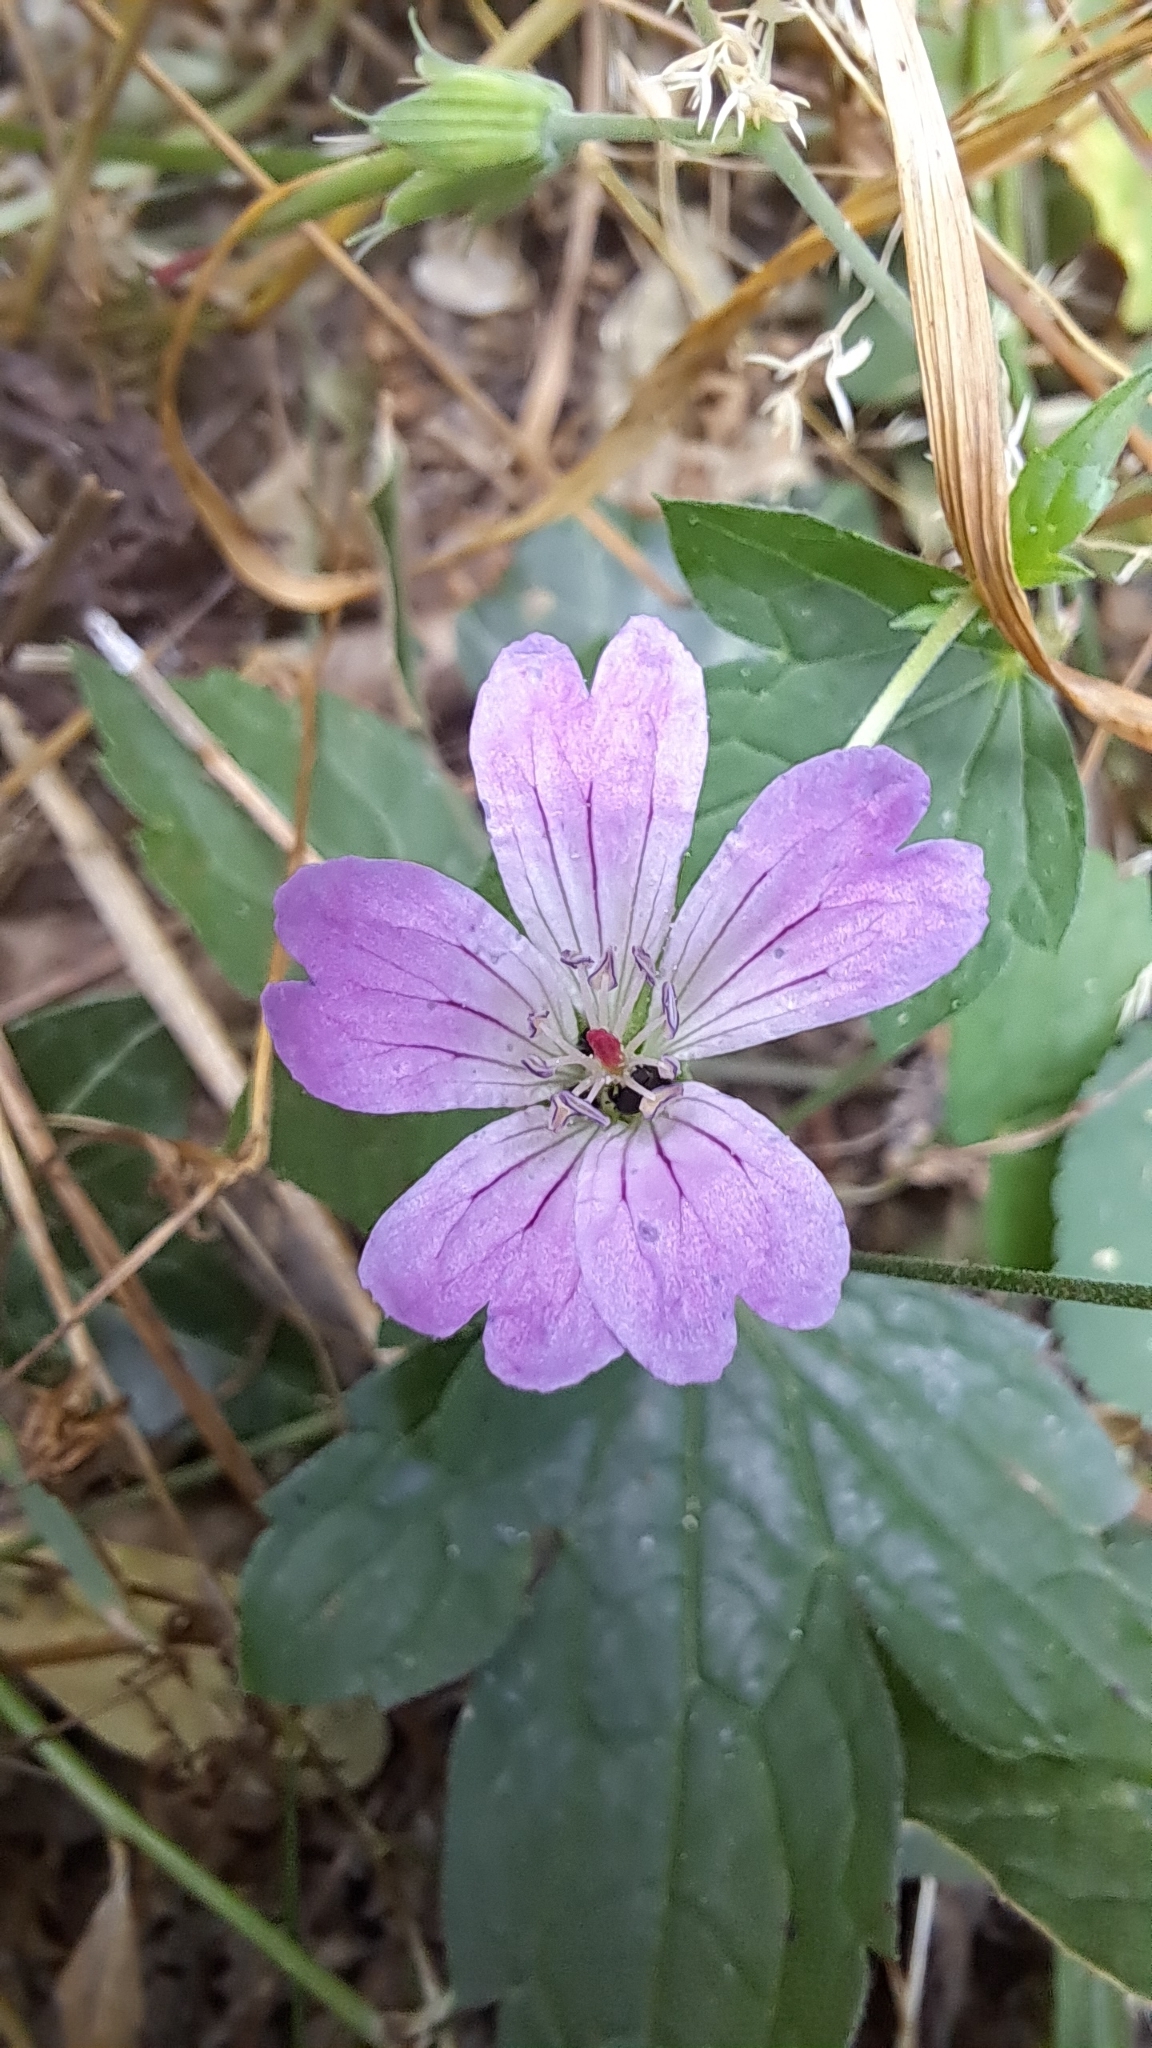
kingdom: Plantae
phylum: Tracheophyta
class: Magnoliopsida
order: Geraniales
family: Geraniaceae
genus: Geranium
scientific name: Geranium nodosum
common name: Knotted crane's-bill
